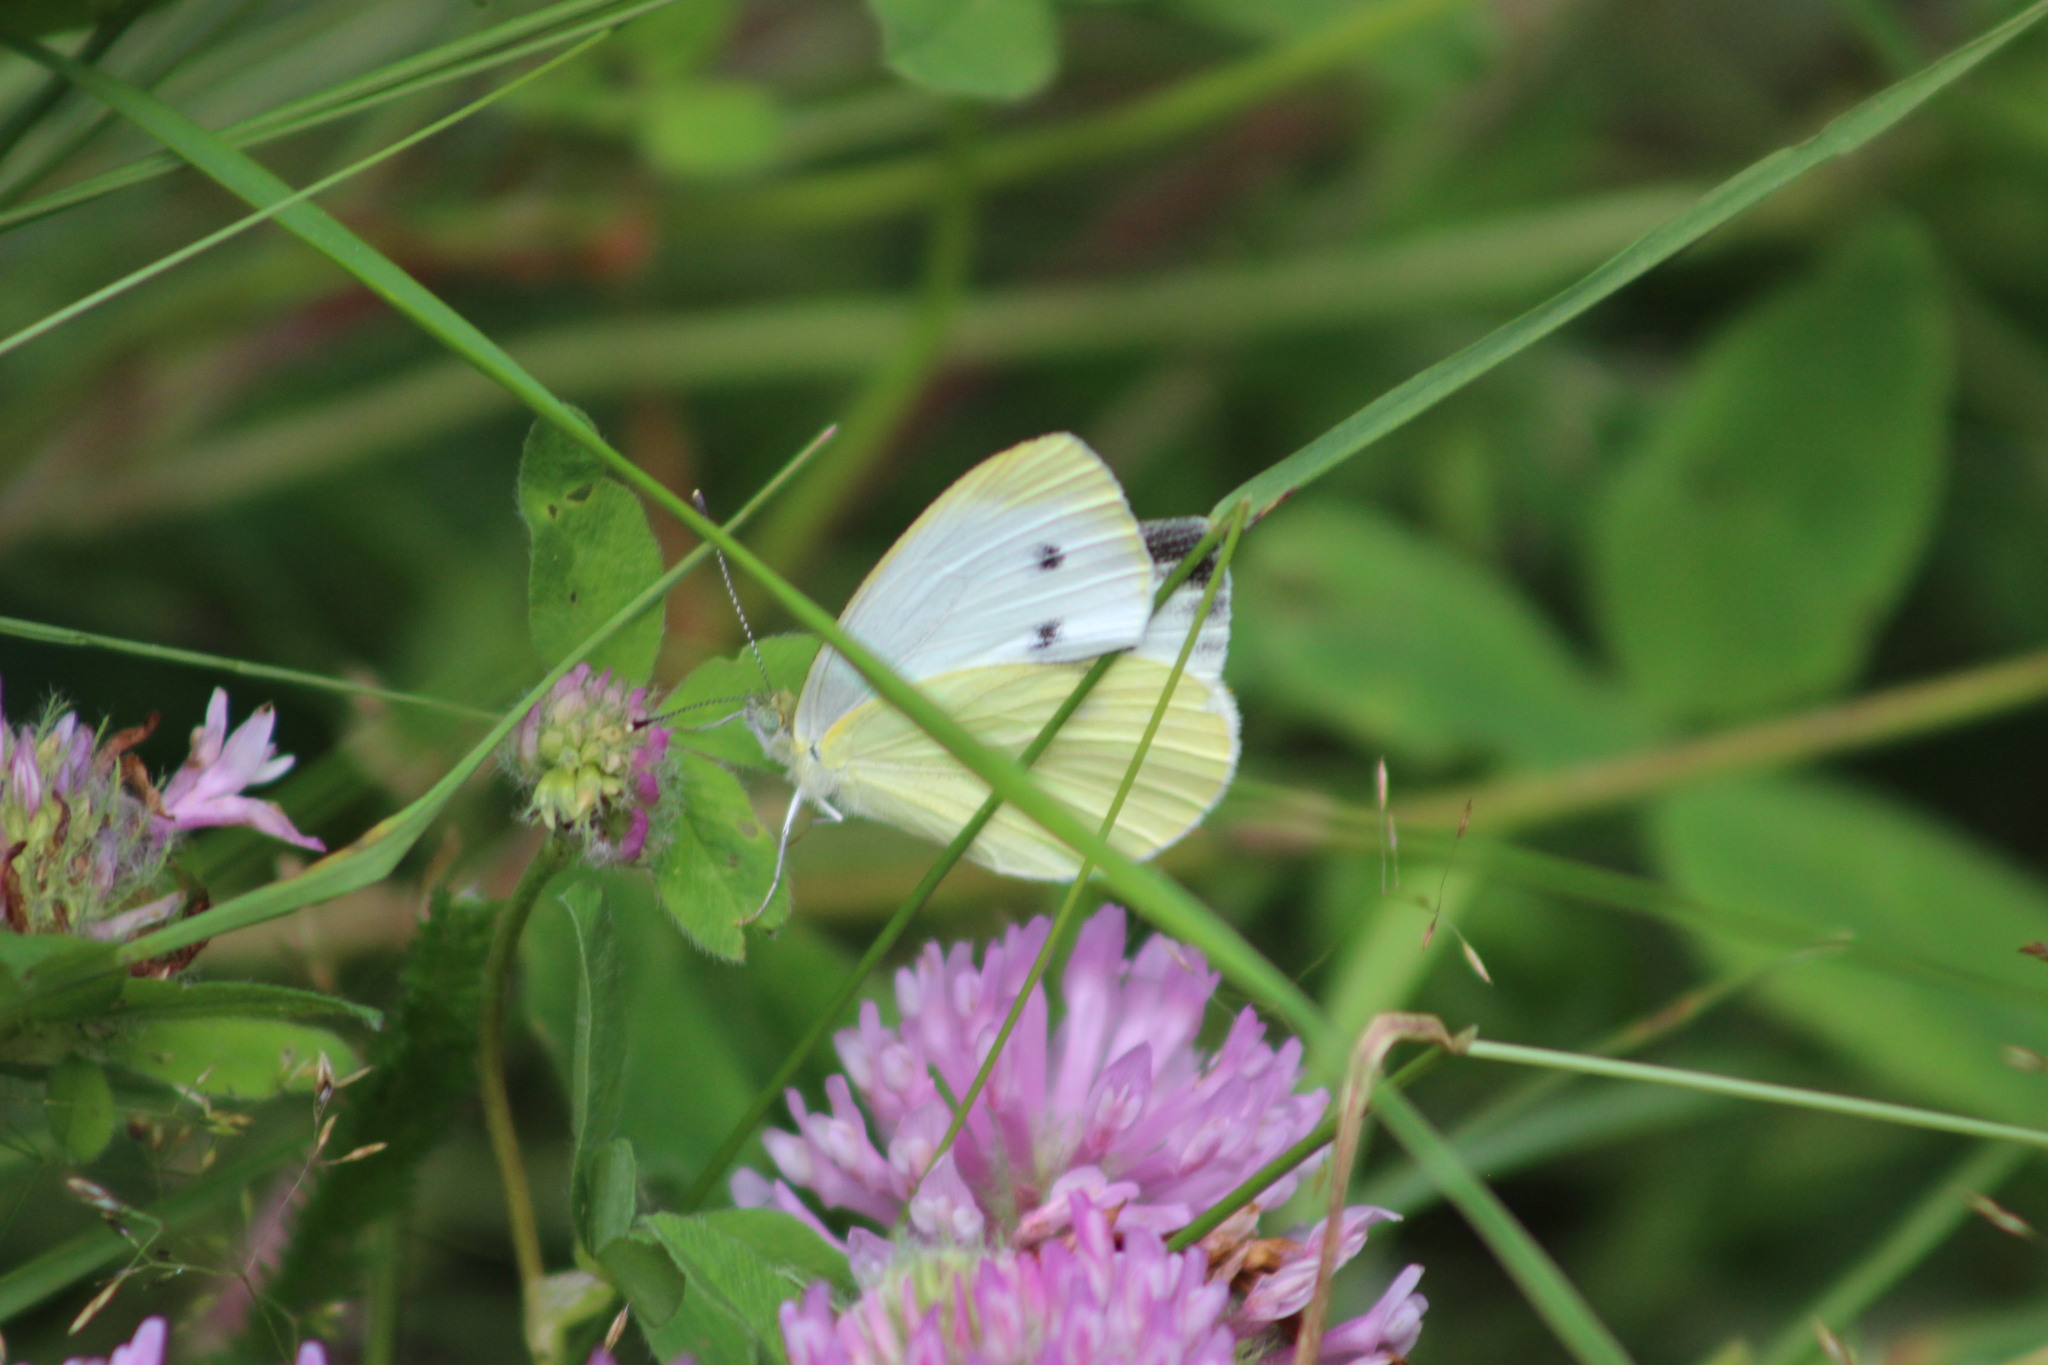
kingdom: Animalia
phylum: Arthropoda
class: Insecta
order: Lepidoptera
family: Pieridae
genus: Pieris
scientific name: Pieris napi
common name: Green-veined white
